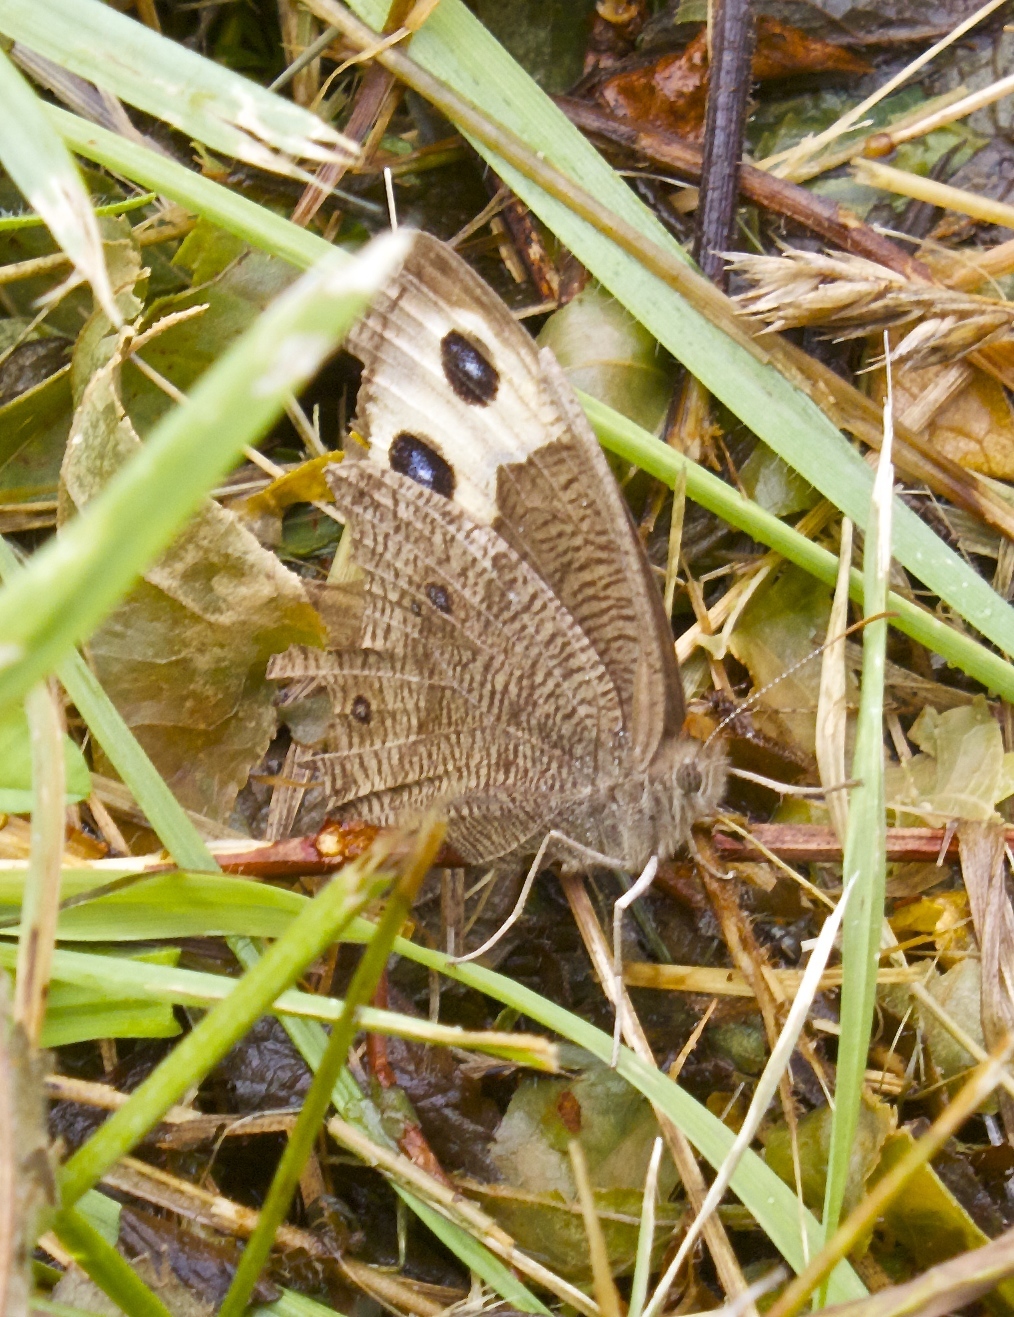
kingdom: Animalia
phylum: Arthropoda
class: Insecta
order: Lepidoptera
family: Nymphalidae
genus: Cercyonis
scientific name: Cercyonis pegala
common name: Common wood-nymph
